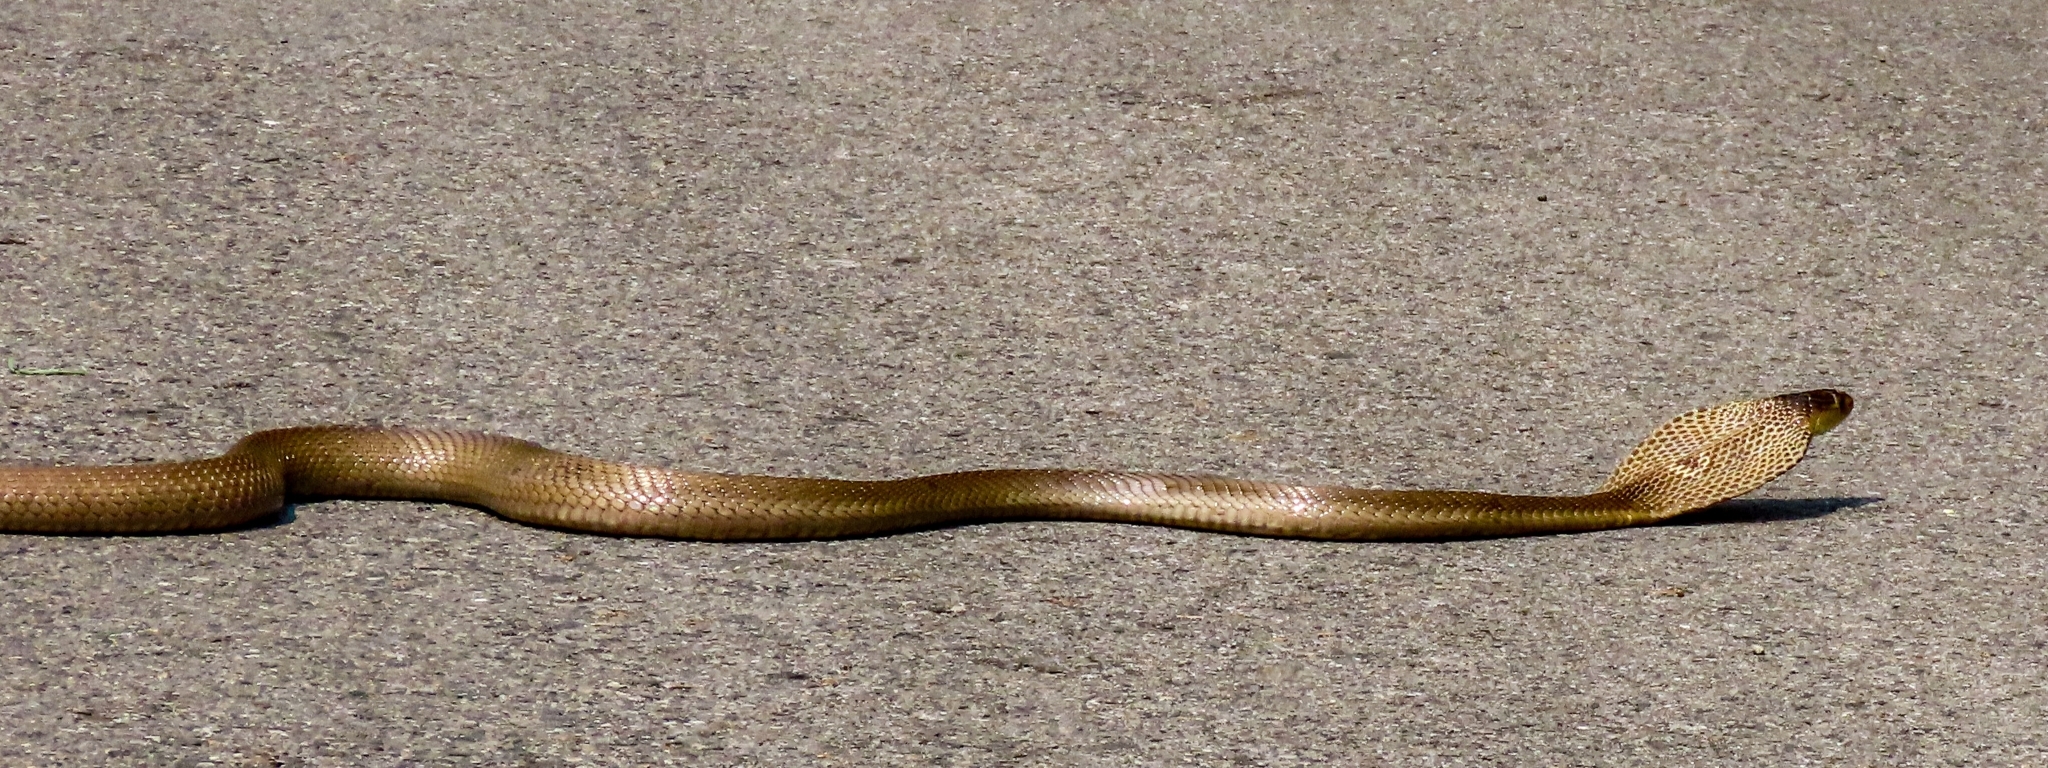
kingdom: Animalia
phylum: Chordata
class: Squamata
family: Elapidae
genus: Naja
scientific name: Naja kaouthia
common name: Monocled cobra
